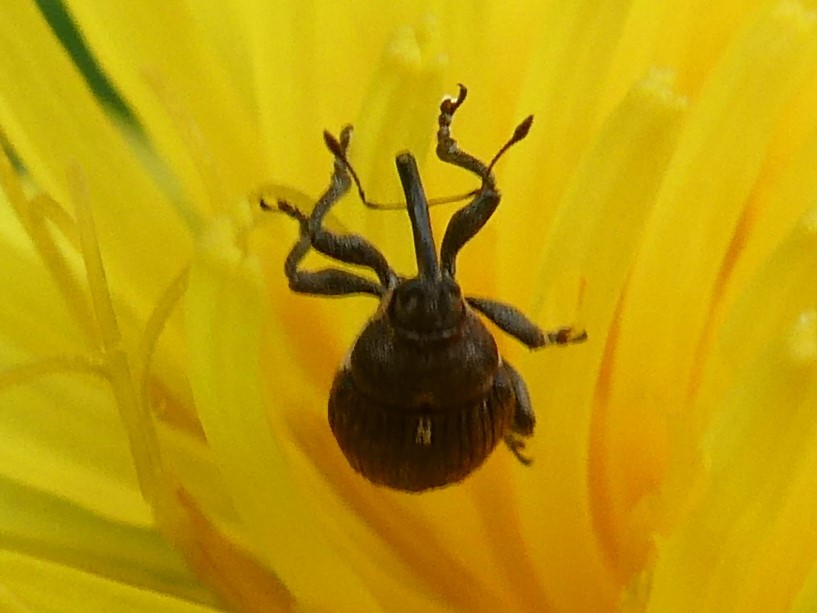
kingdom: Animalia
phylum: Arthropoda
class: Insecta
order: Coleoptera
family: Curculionidae
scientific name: Curculionidae
